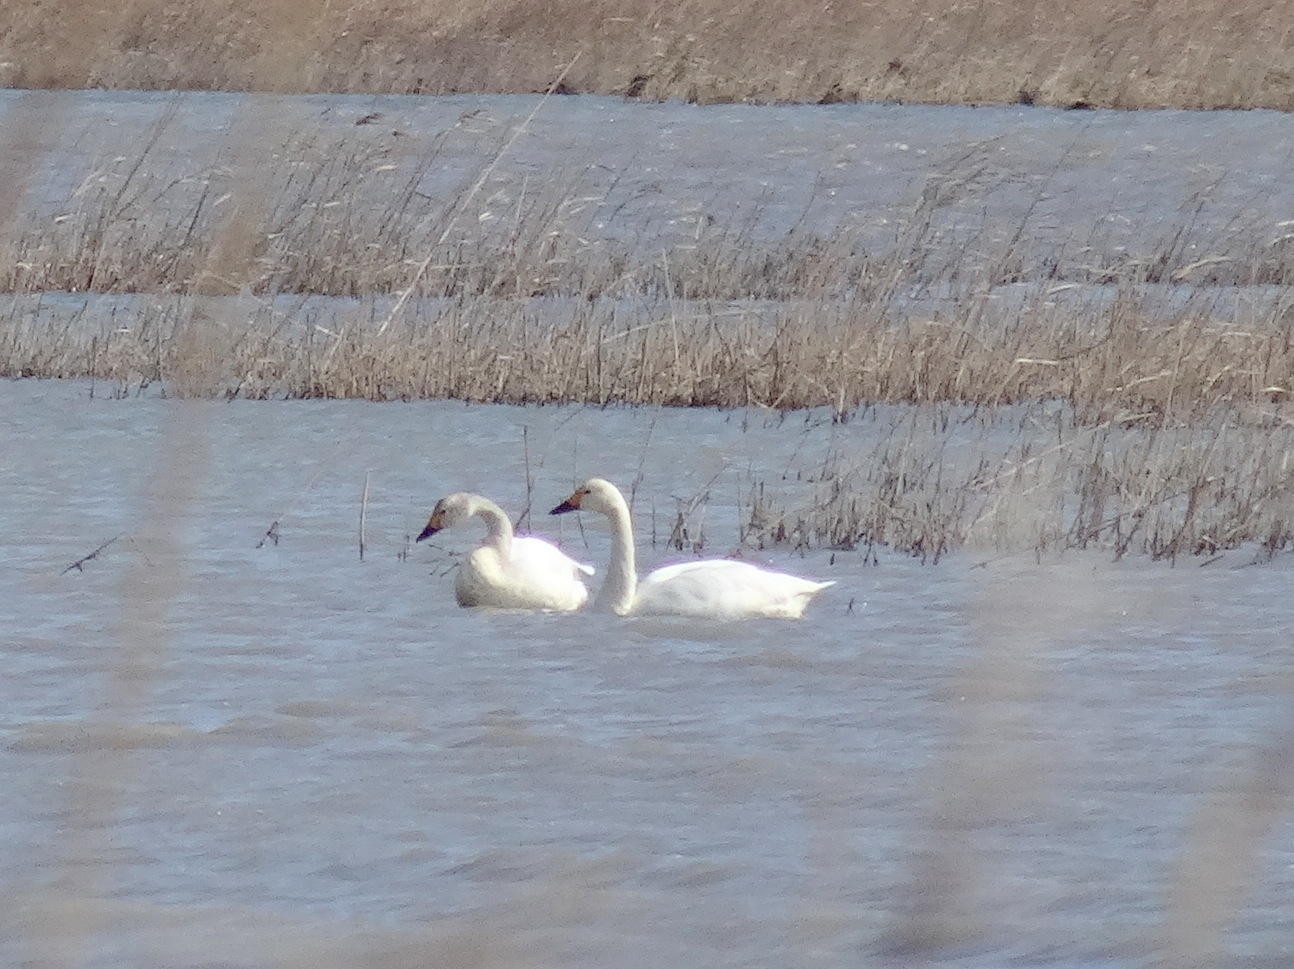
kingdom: Animalia
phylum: Chordata
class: Aves
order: Anseriformes
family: Anatidae
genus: Cygnus
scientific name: Cygnus columbianus
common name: Tundra swan
